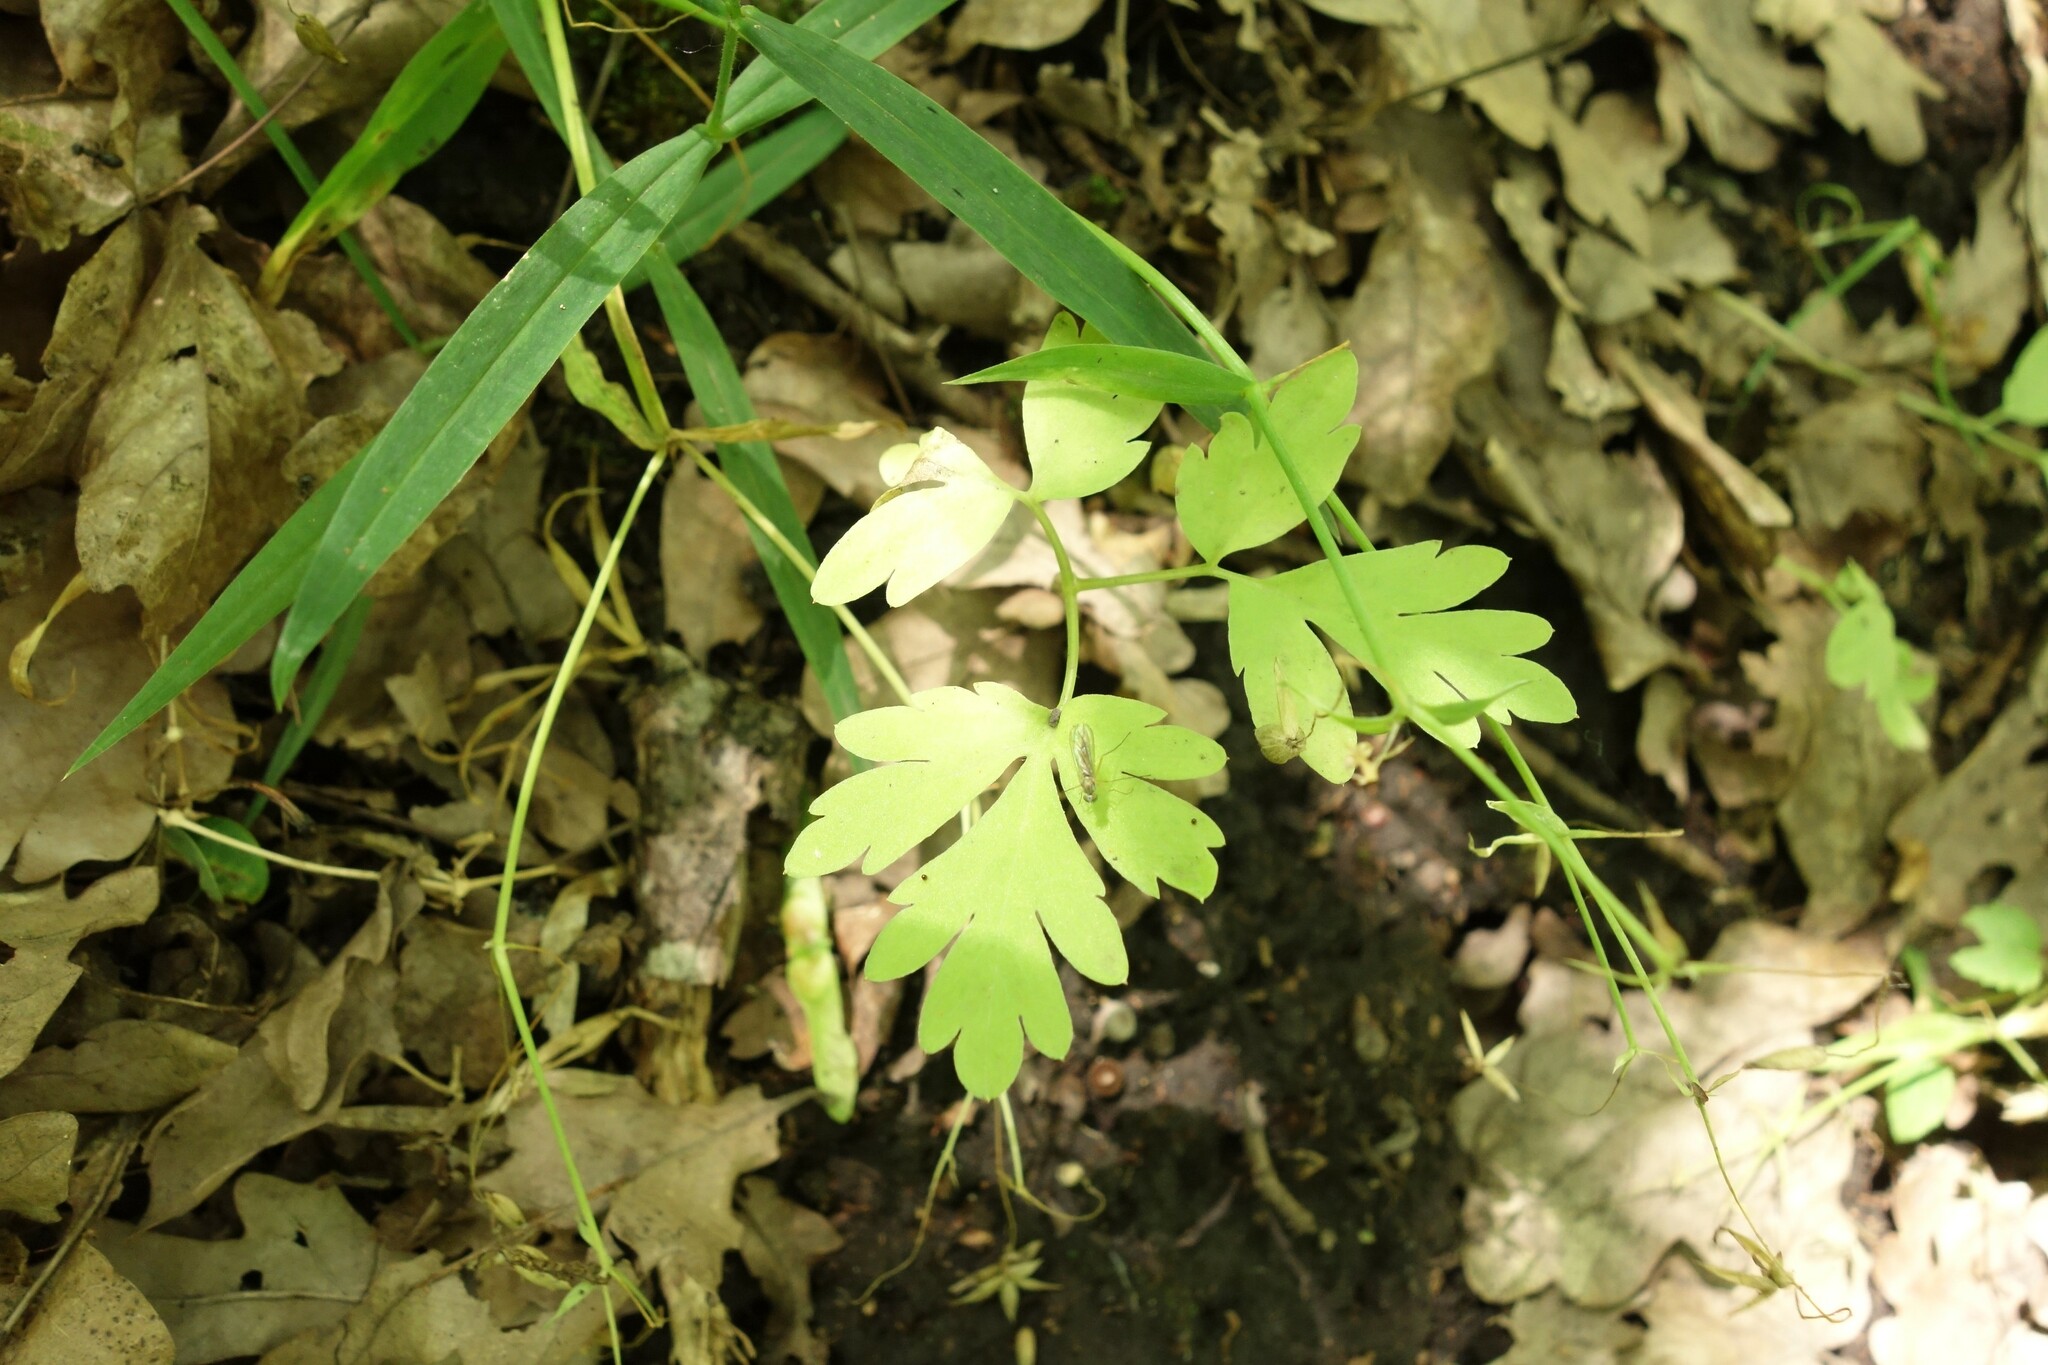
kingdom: Plantae
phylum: Tracheophyta
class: Magnoliopsida
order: Dipsacales
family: Viburnaceae
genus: Adoxa
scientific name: Adoxa moschatellina
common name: Moschatel
